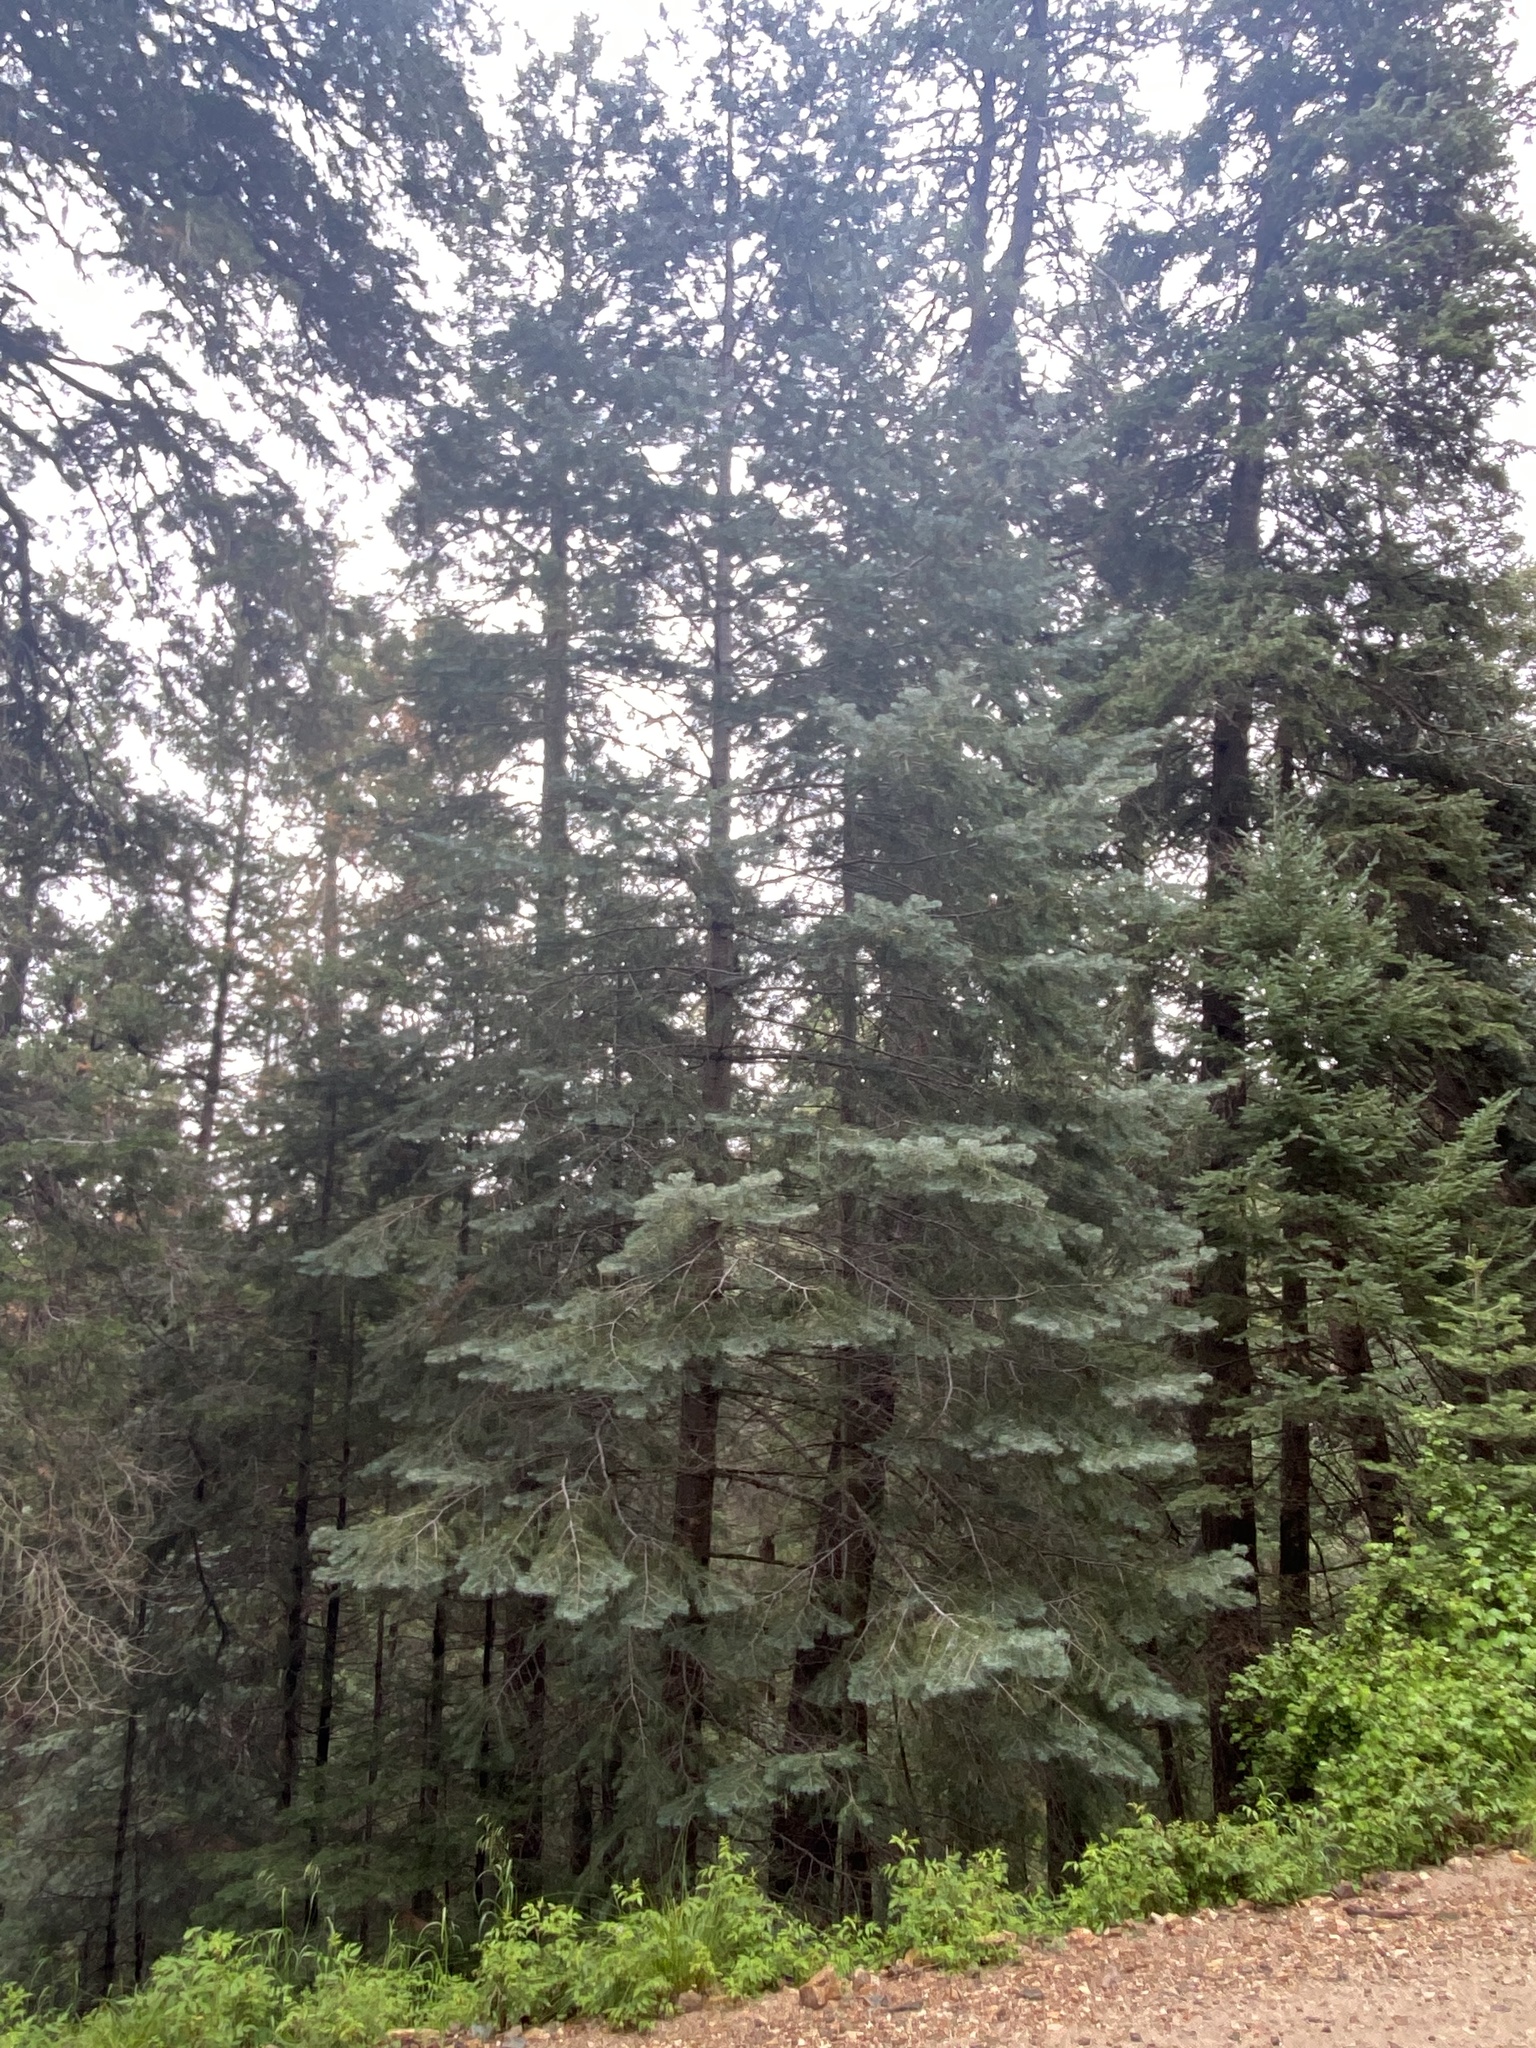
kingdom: Plantae
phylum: Tracheophyta
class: Pinopsida
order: Pinales
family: Pinaceae
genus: Abies
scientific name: Abies concolor
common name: Colorado fir
